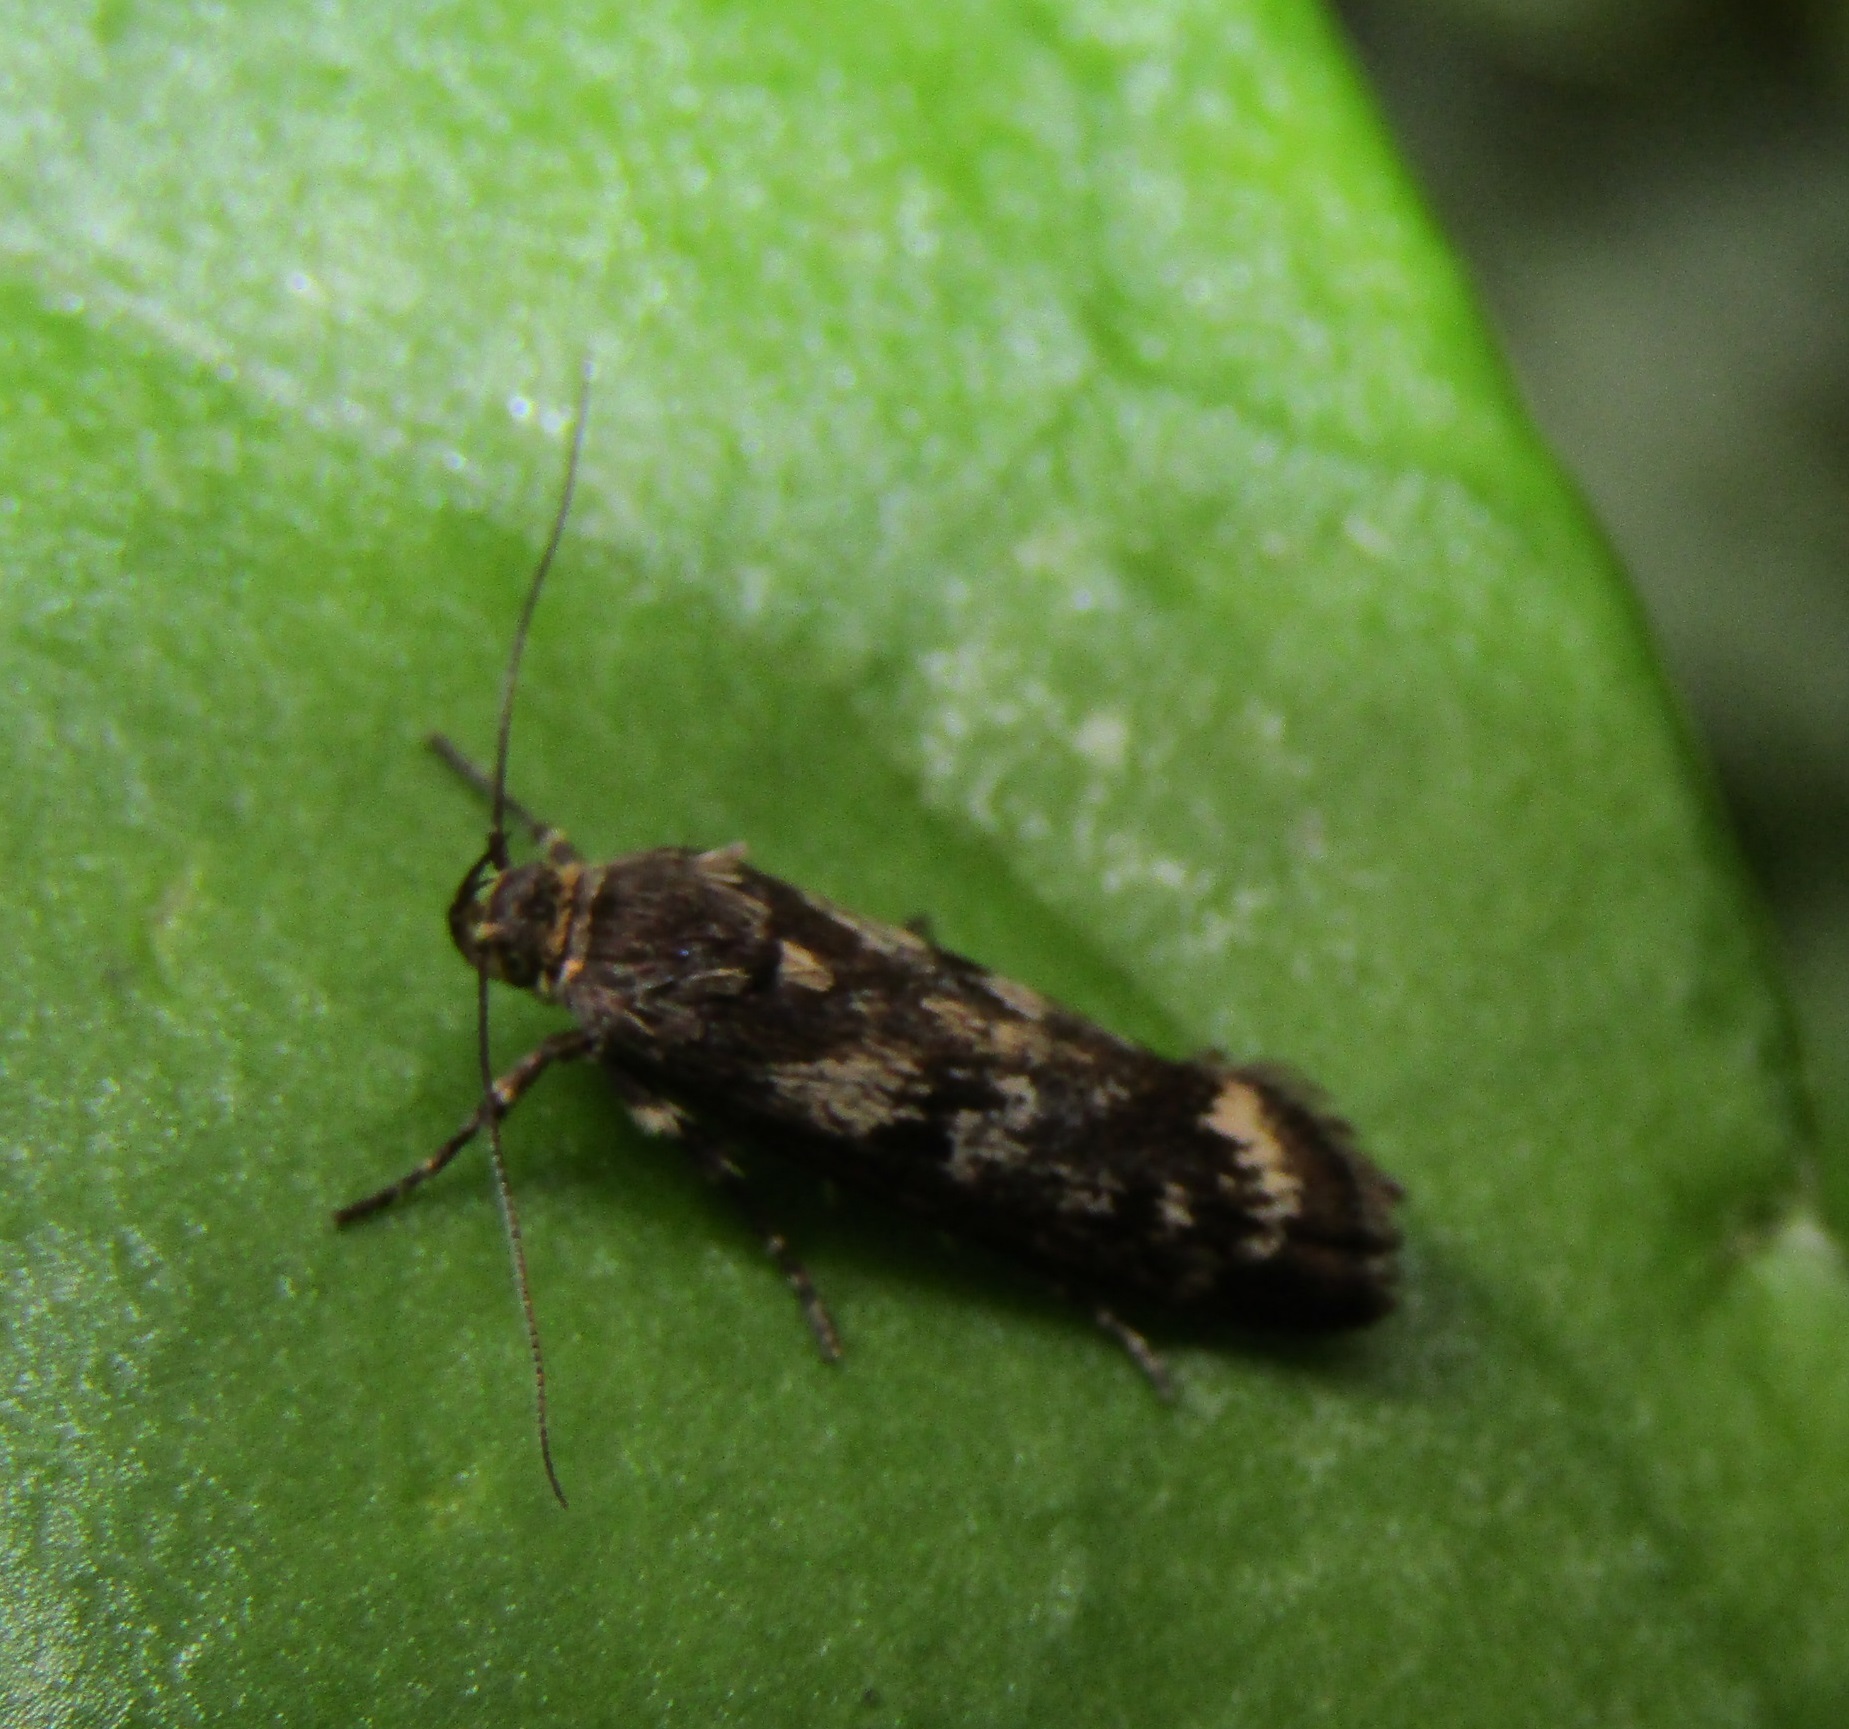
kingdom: Animalia
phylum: Arthropoda
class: Insecta
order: Lepidoptera
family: Oecophoridae
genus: Hierodoris
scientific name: Hierodoris atychioides
